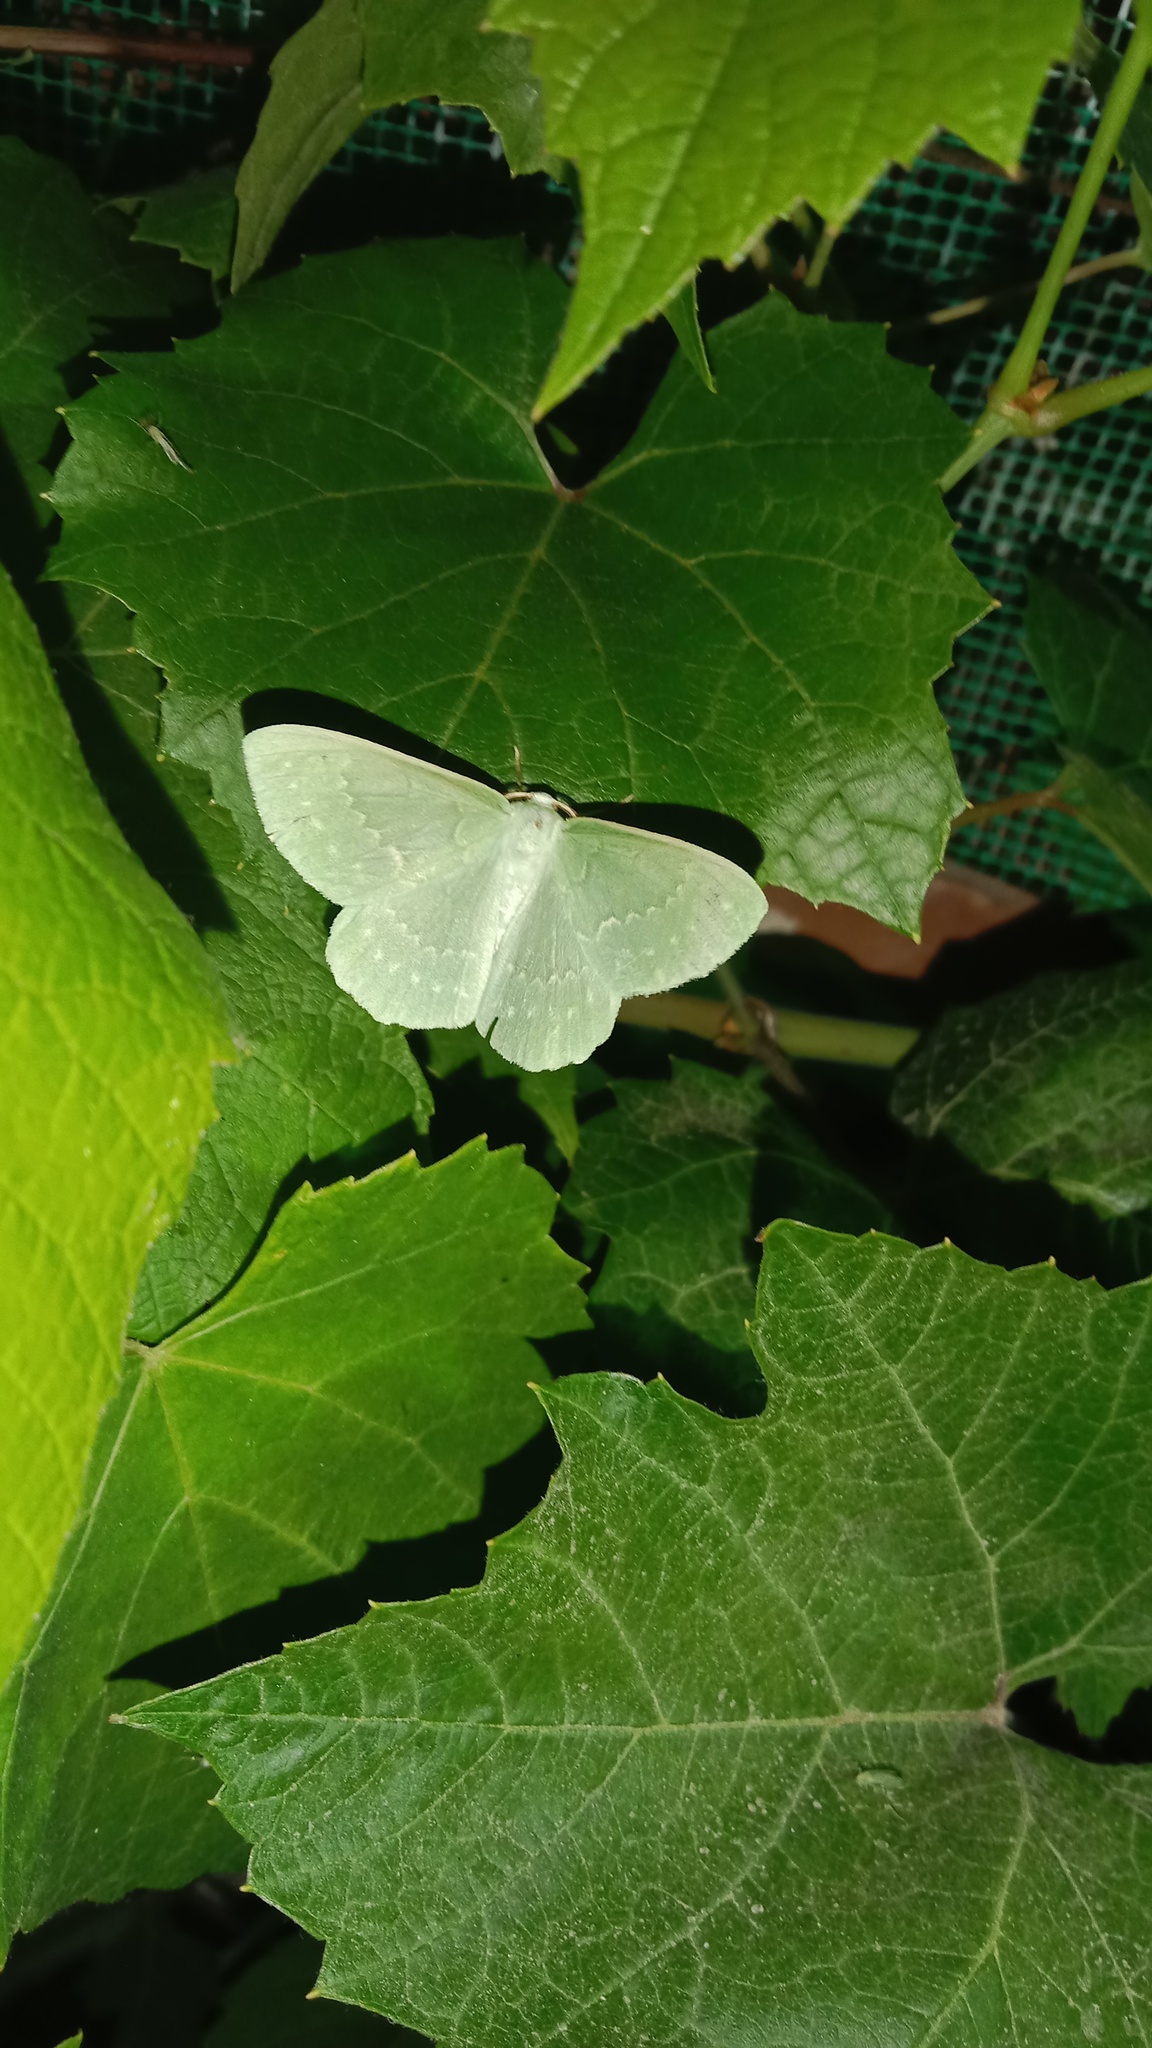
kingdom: Animalia
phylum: Arthropoda
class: Insecta
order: Lepidoptera
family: Geometridae
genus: Geometra
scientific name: Geometra papilionaria
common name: Large emerald
